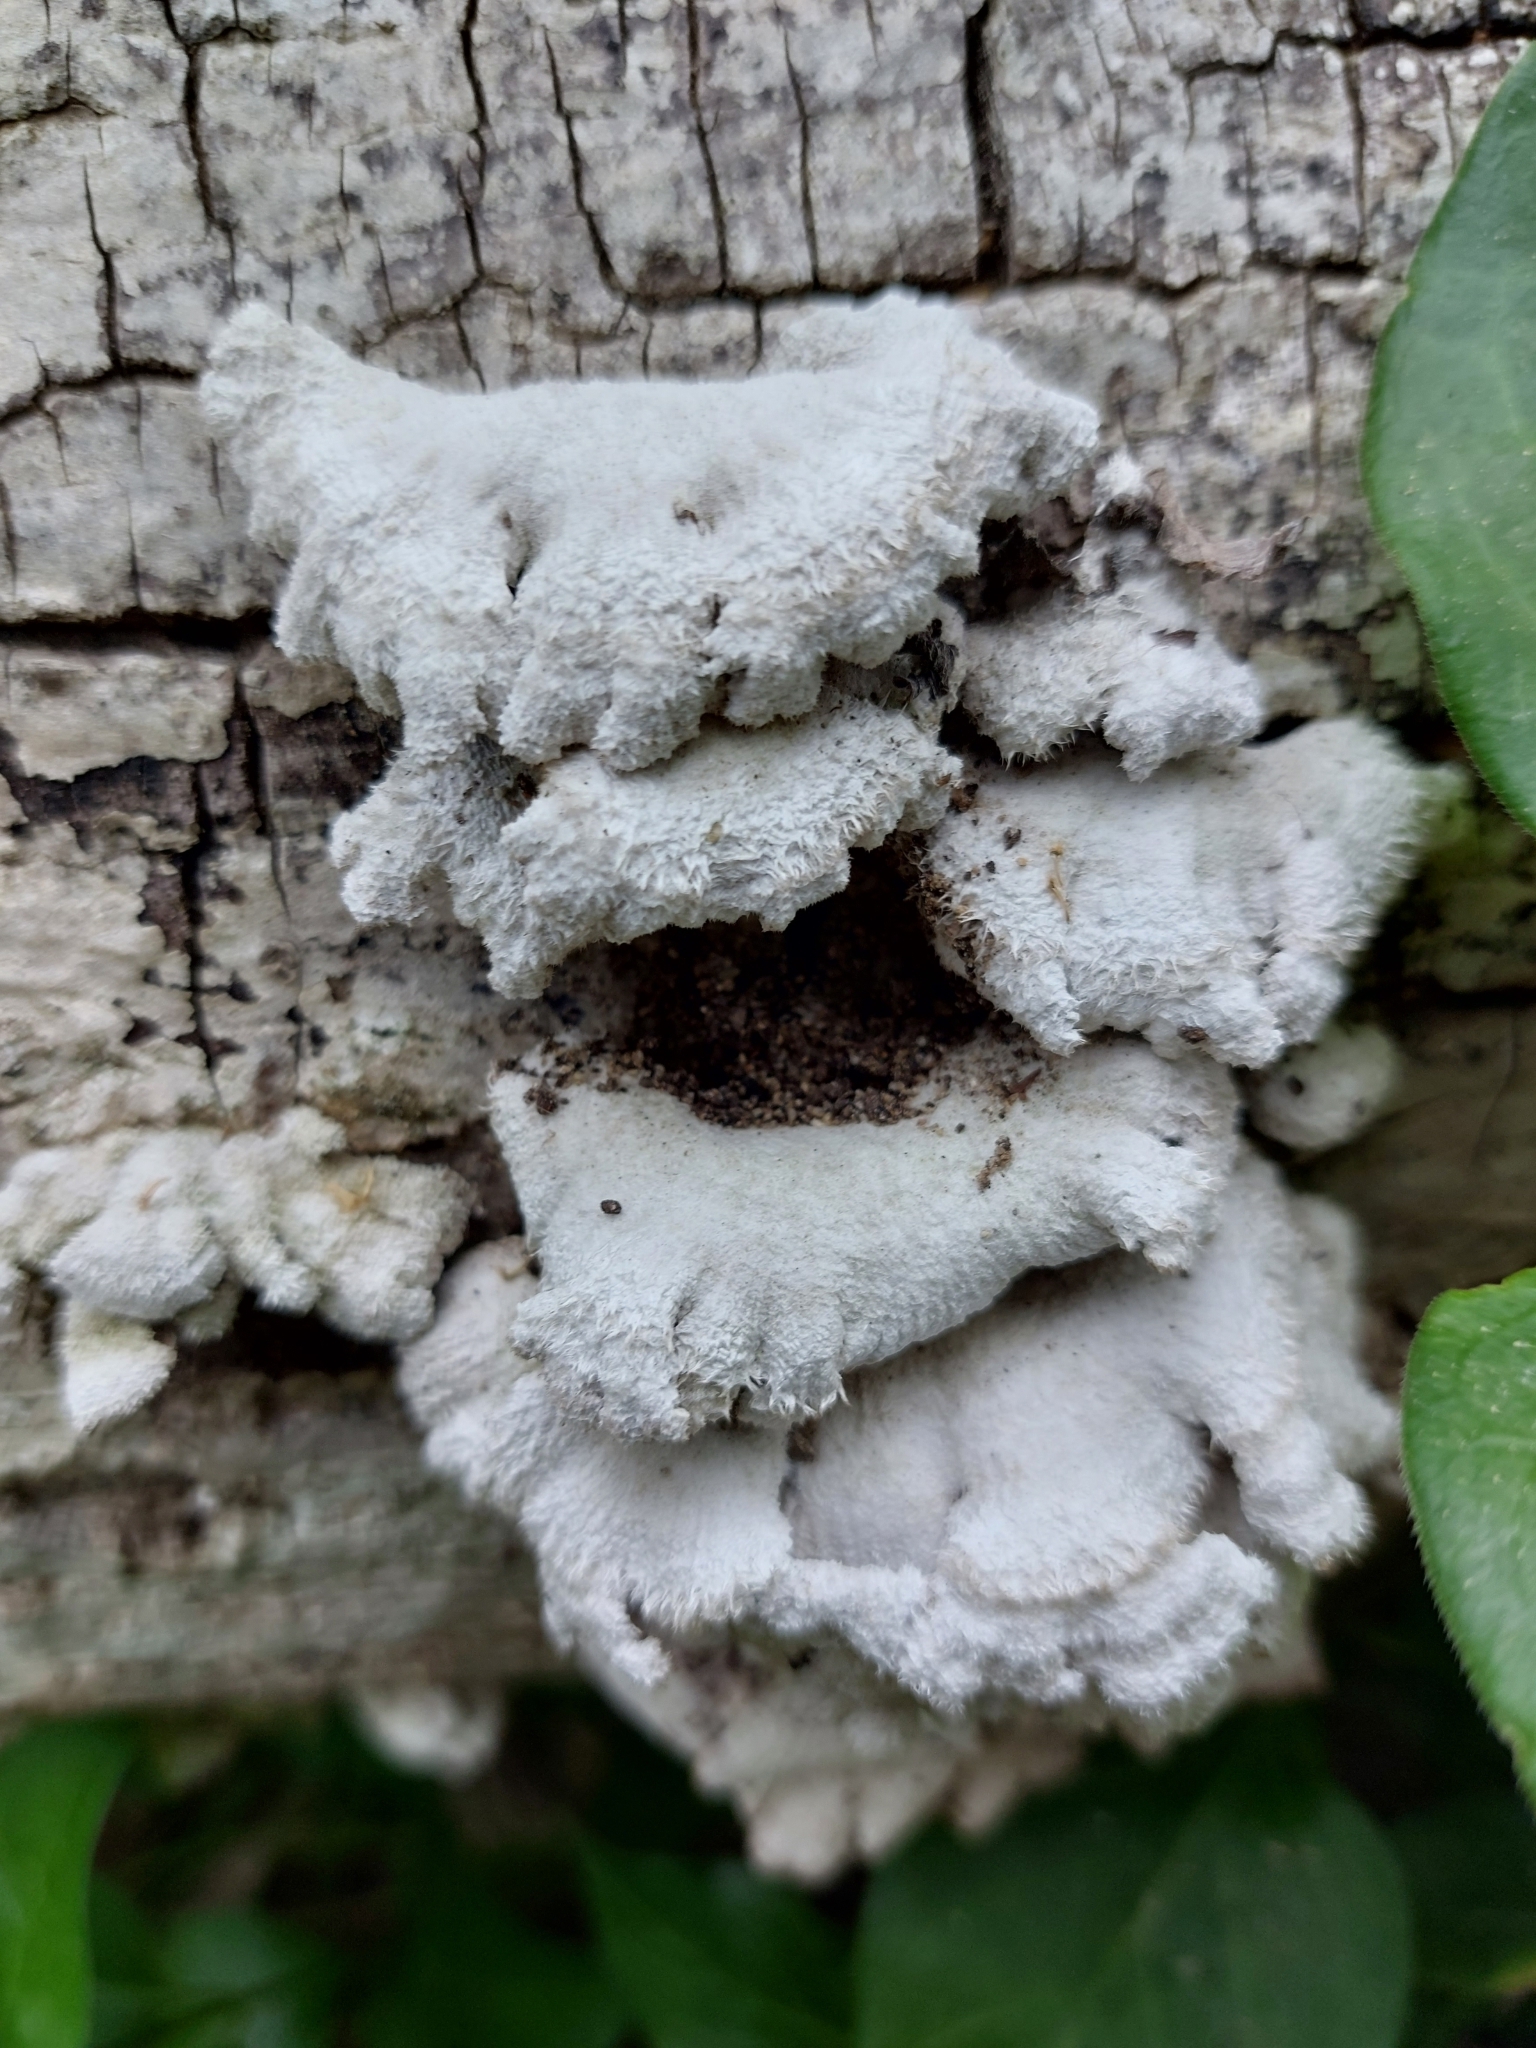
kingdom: Fungi
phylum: Basidiomycota
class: Agaricomycetes
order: Agaricales
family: Schizophyllaceae
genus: Schizophyllum
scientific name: Schizophyllum commune
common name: Common porecrust
